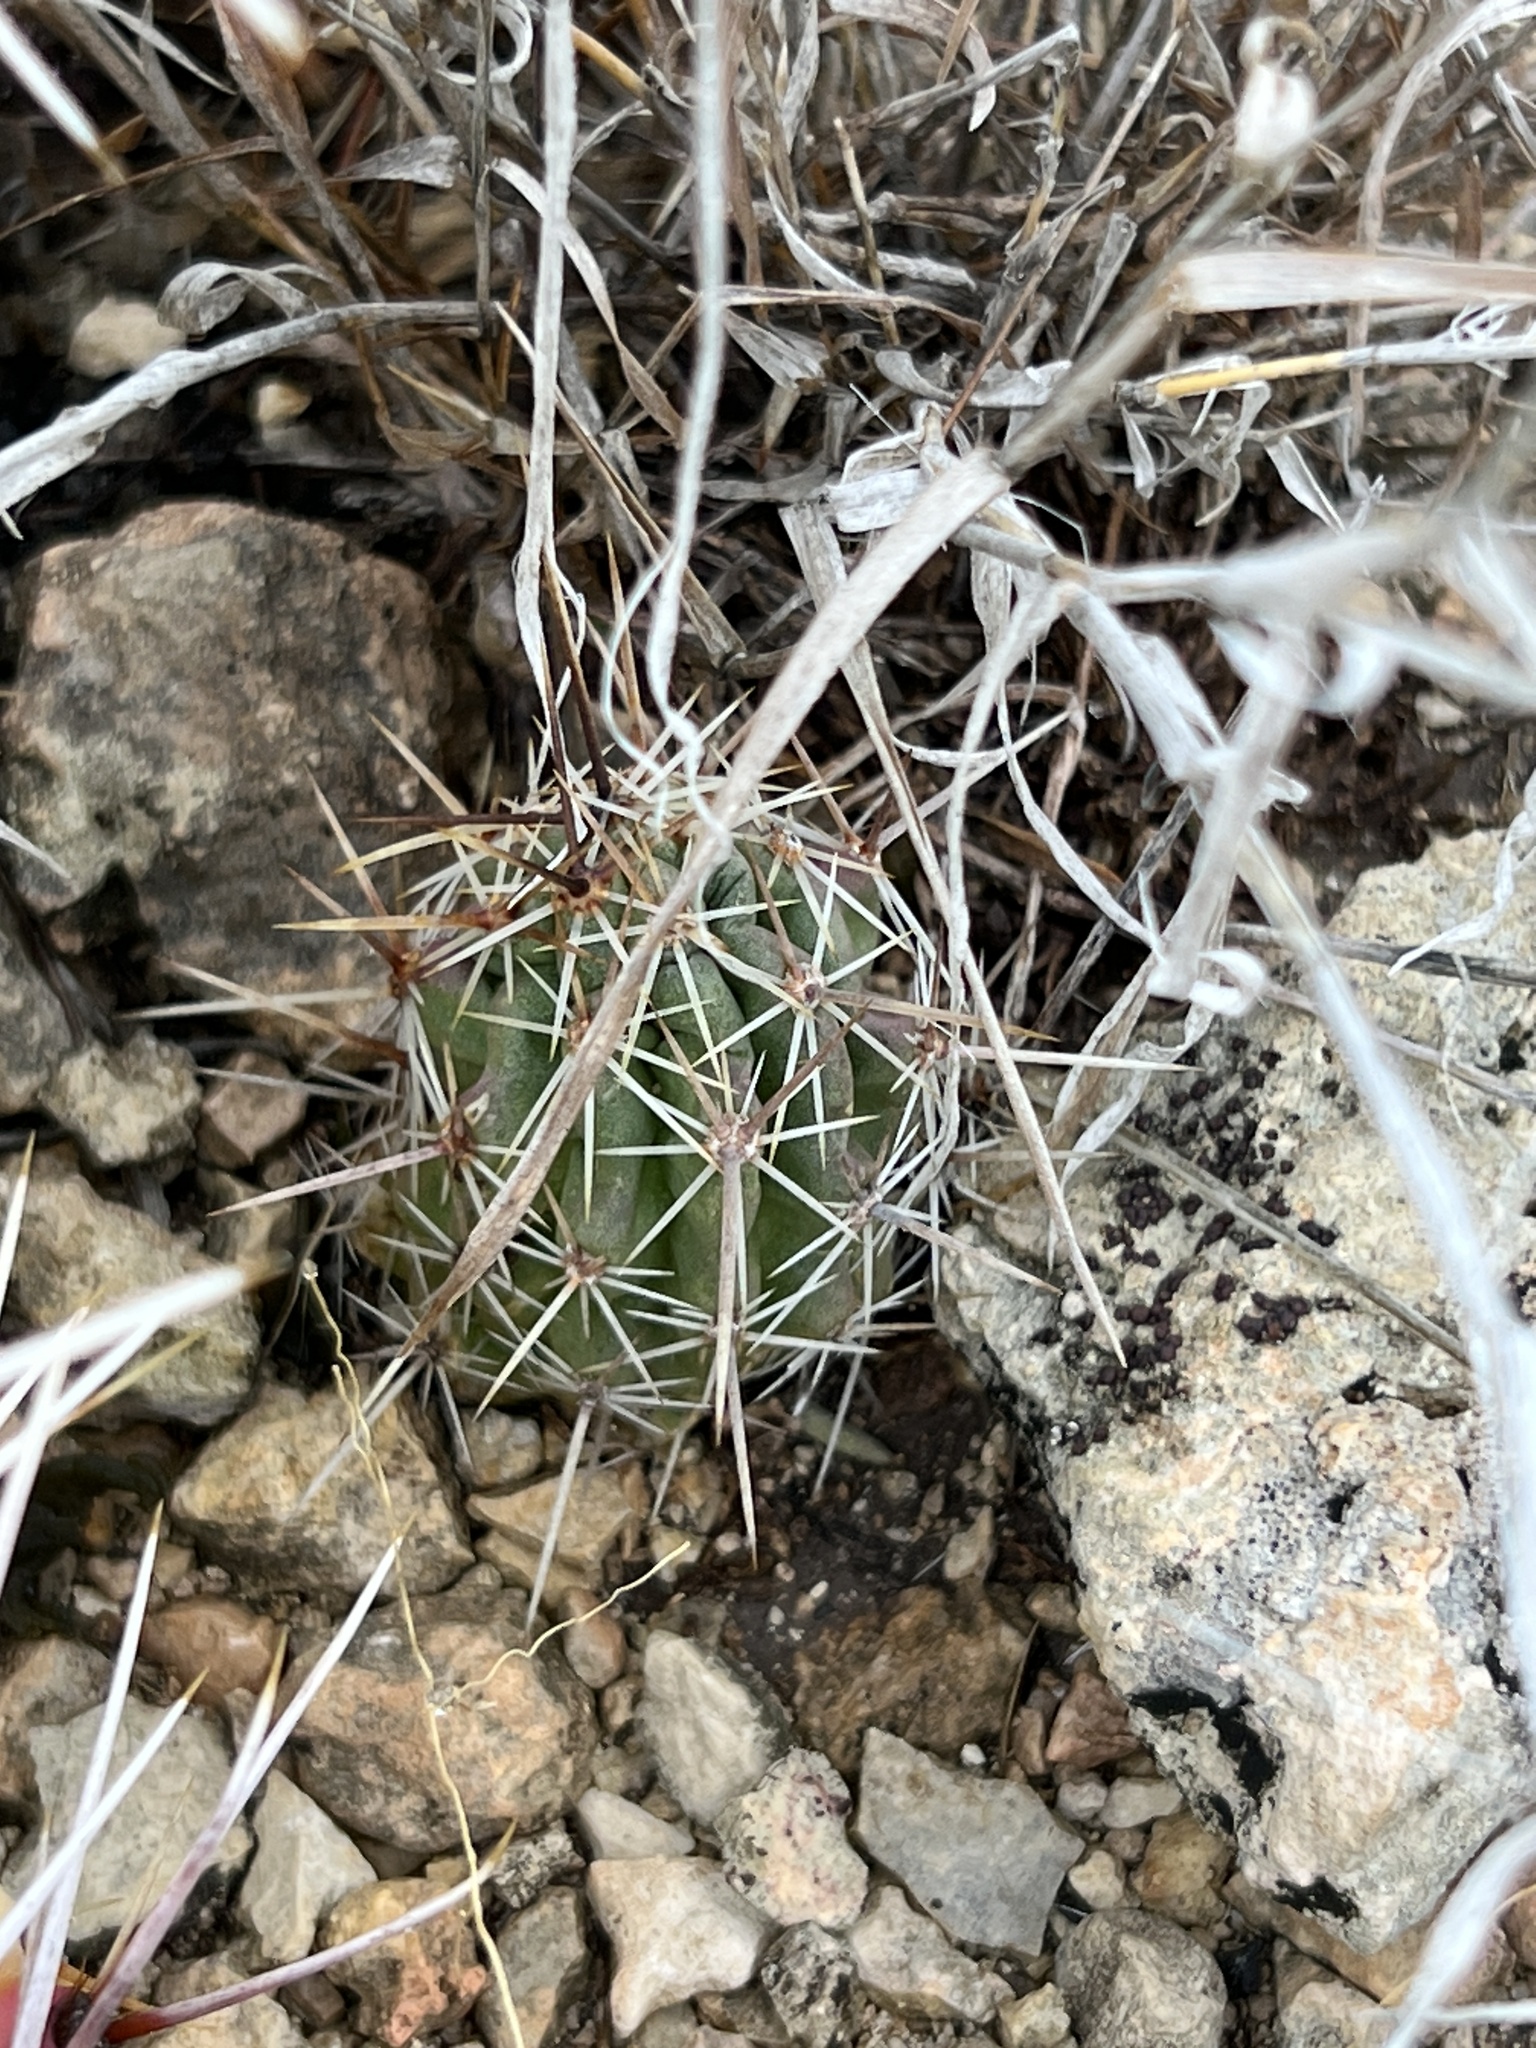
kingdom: Plantae
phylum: Tracheophyta
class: Magnoliopsida
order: Caryophyllales
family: Cactaceae
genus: Echinocereus
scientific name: Echinocereus enneacanthus
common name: Pitaya
